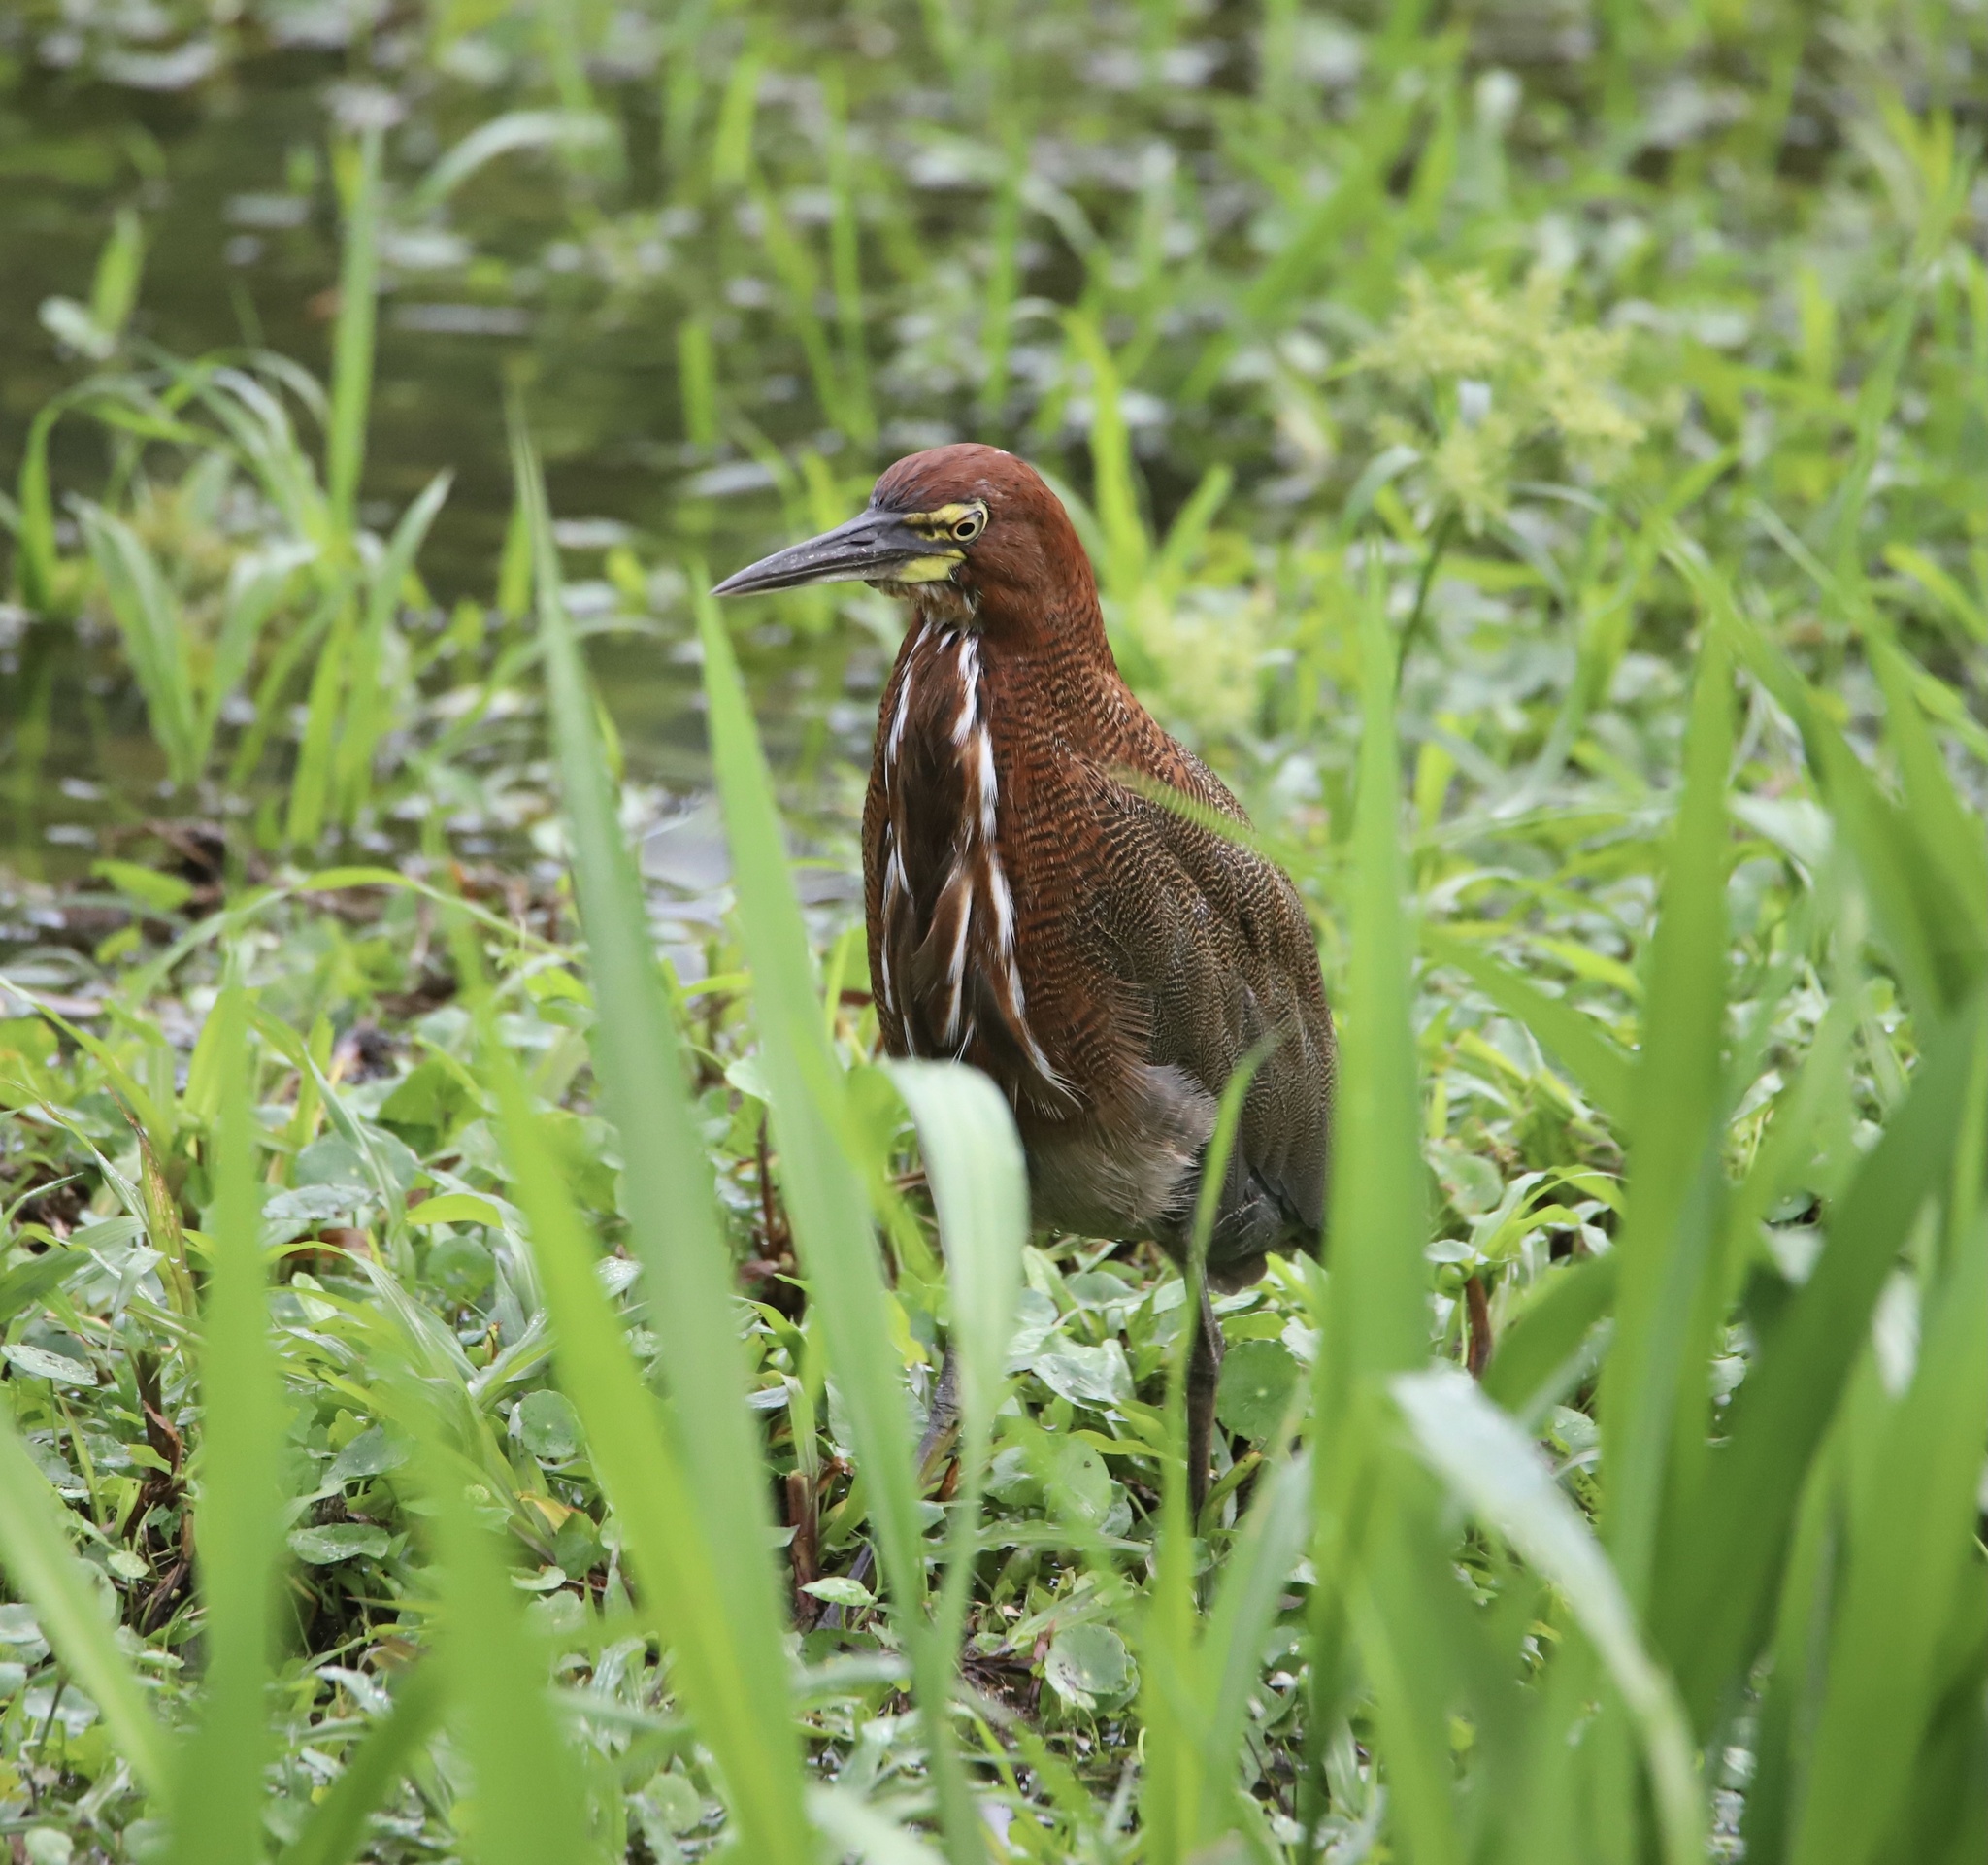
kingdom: Animalia
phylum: Chordata
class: Aves
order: Pelecaniformes
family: Ardeidae
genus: Tigrisoma
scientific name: Tigrisoma lineatum
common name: Rufescent tiger-heron
